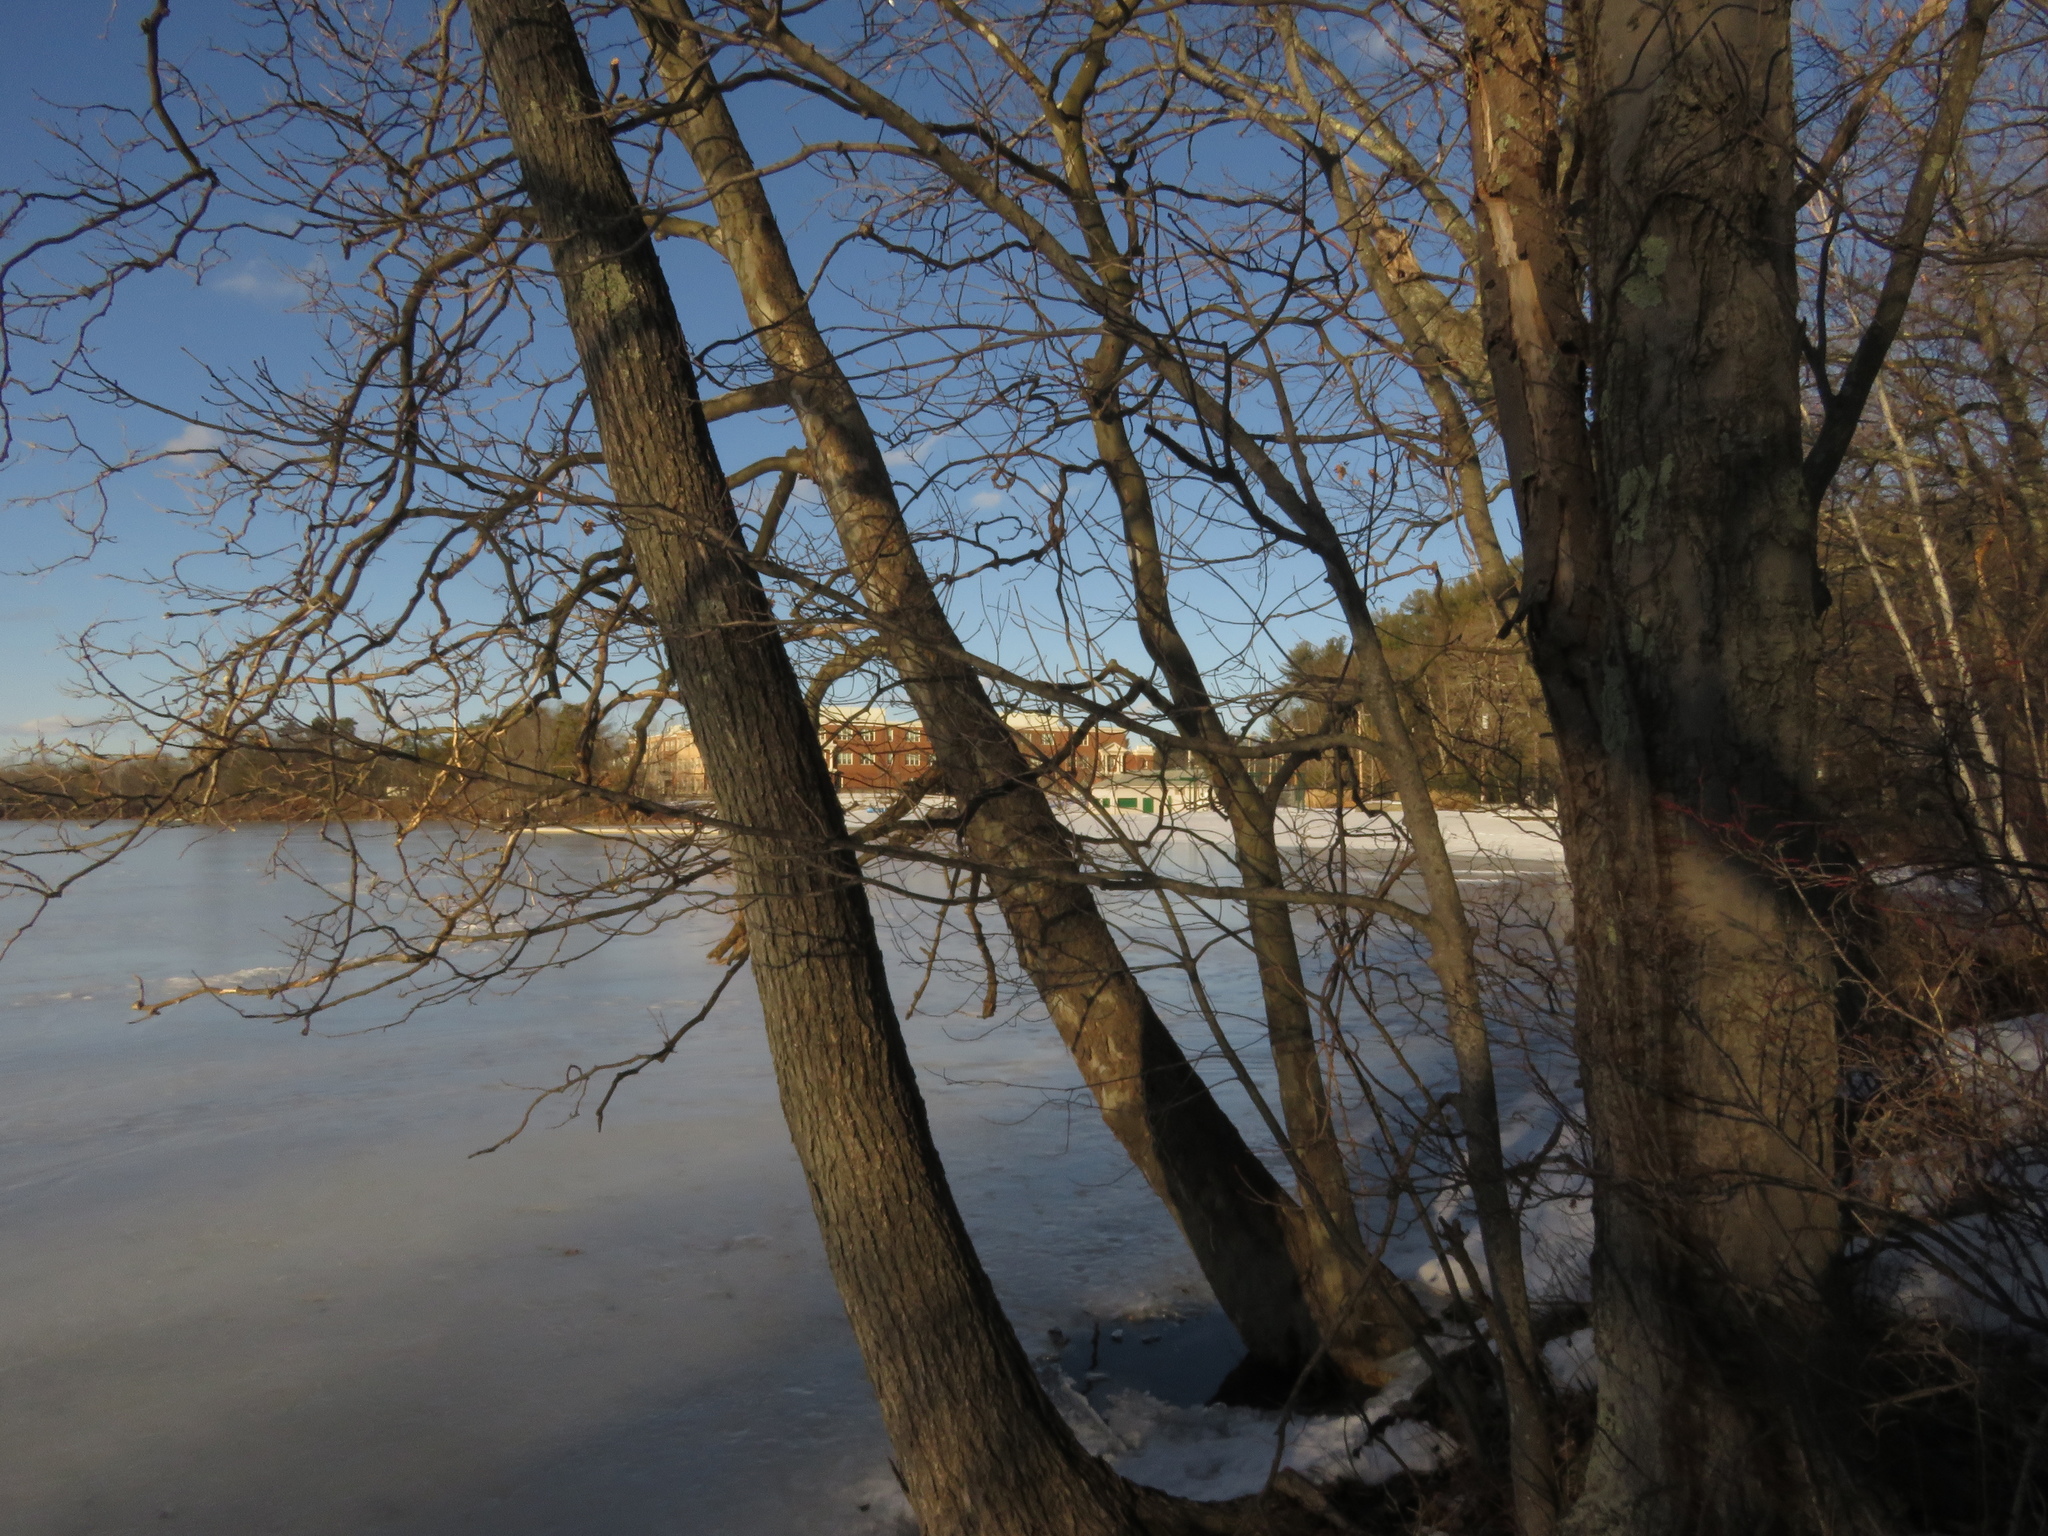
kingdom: Plantae
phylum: Tracheophyta
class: Magnoliopsida
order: Proteales
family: Platanaceae
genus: Platanus
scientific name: Platanus occidentalis
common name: American sycamore
